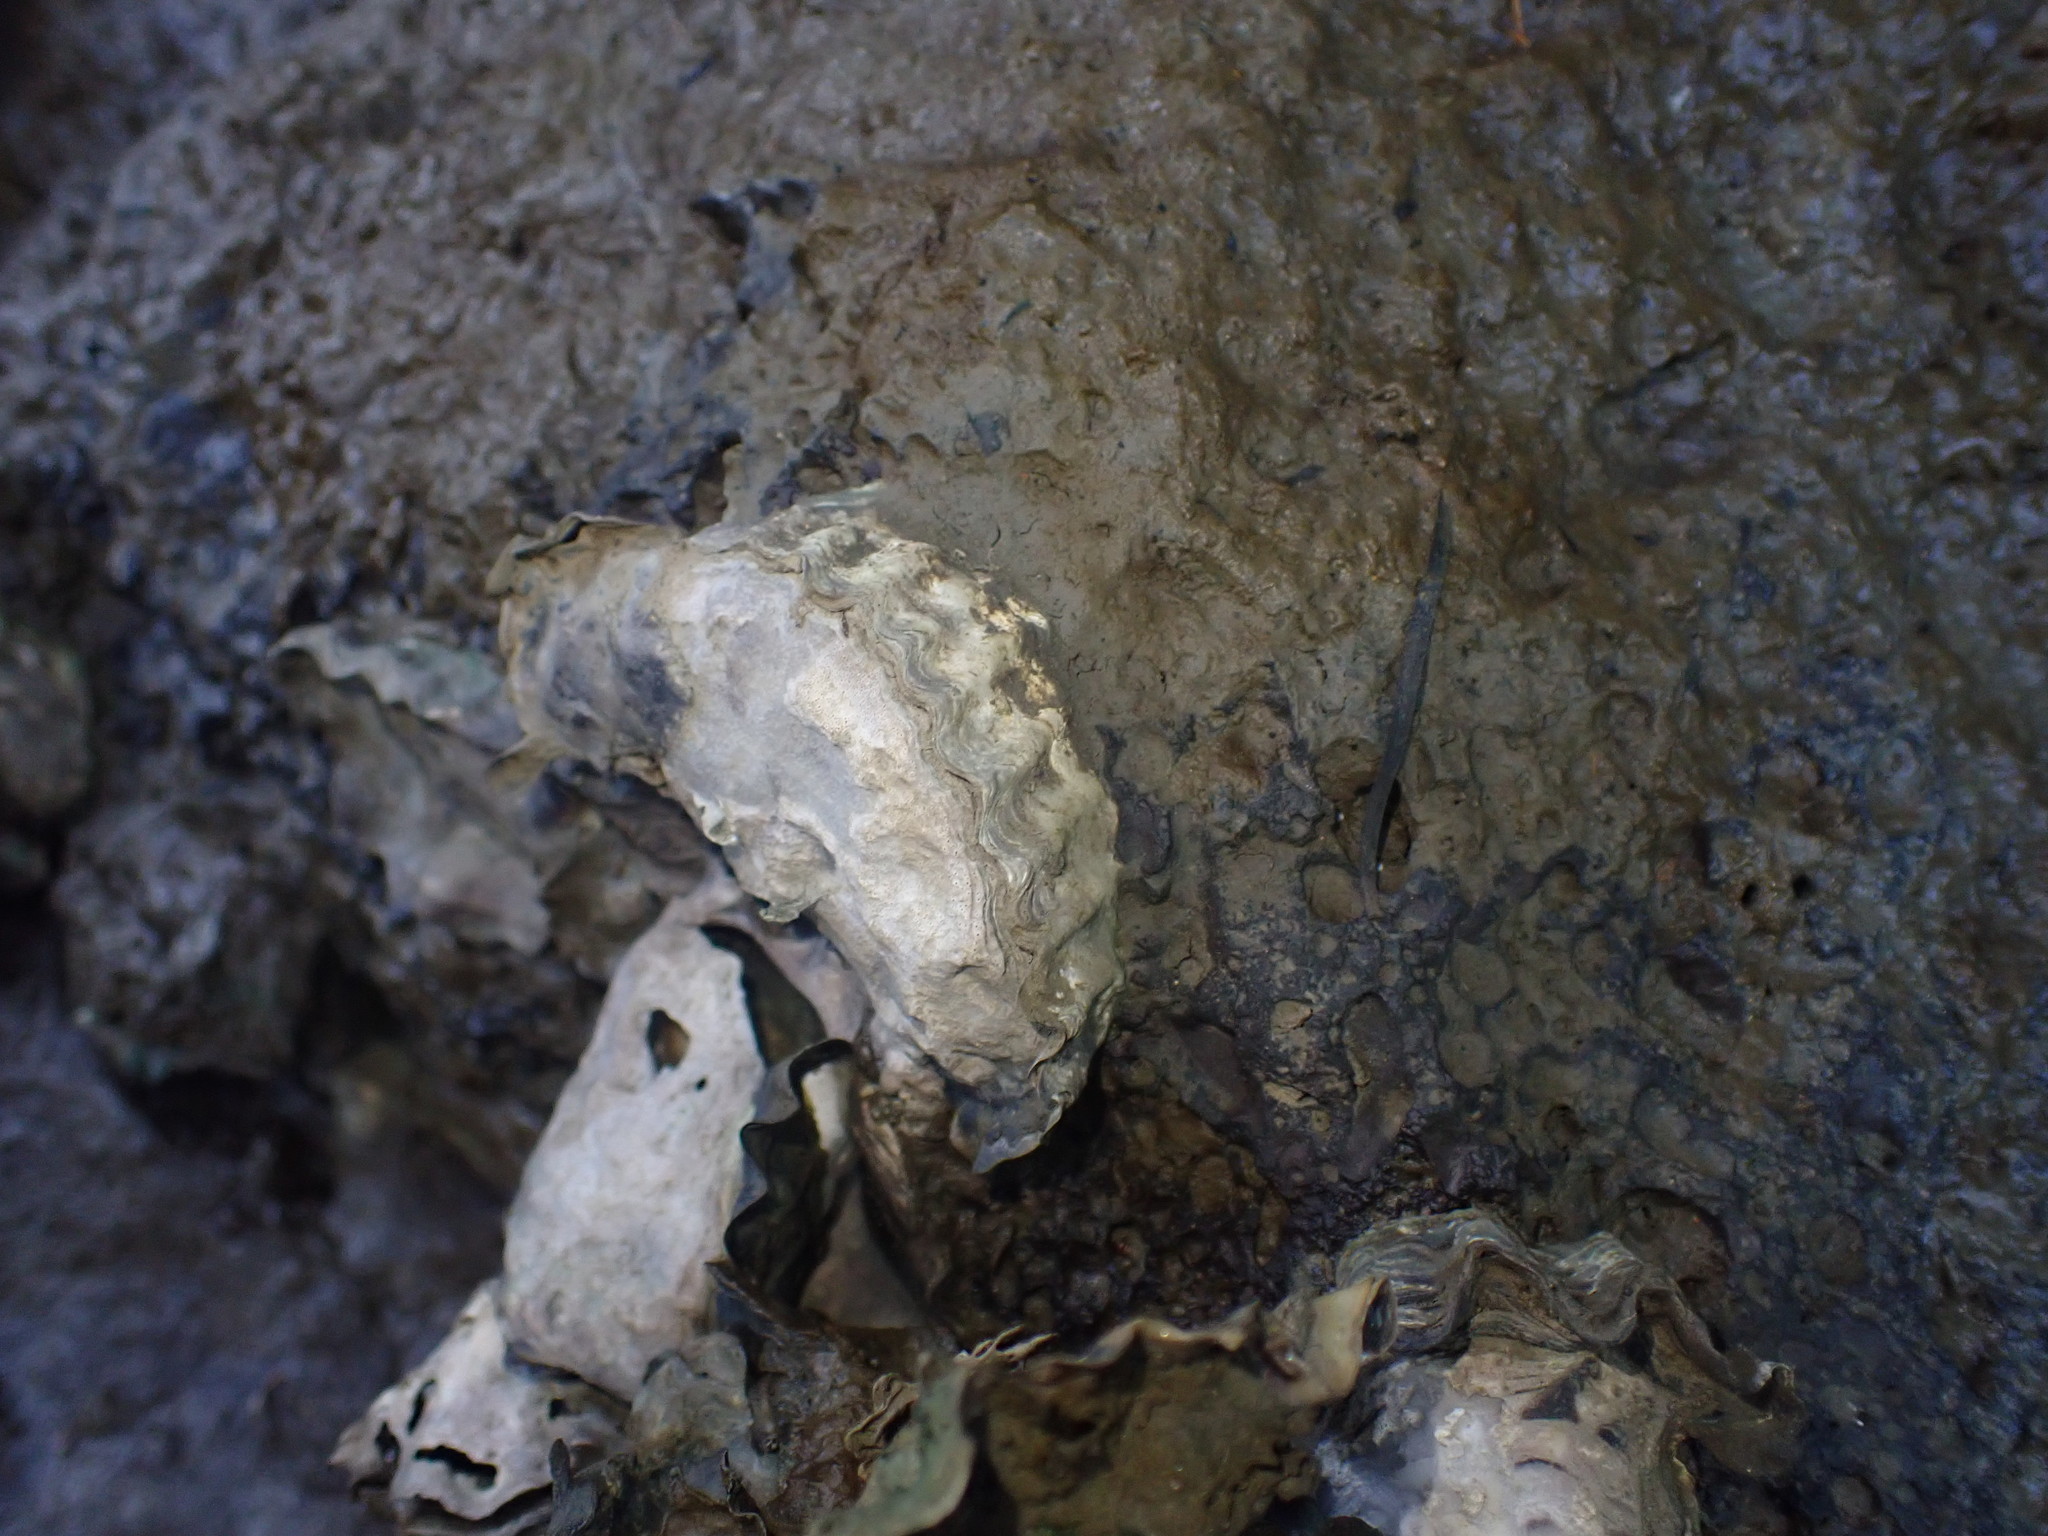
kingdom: Animalia
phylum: Mollusca
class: Bivalvia
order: Ostreida
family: Ostreidae
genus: Saccostrea
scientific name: Saccostrea glomerata
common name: Sydney cupped oyster
